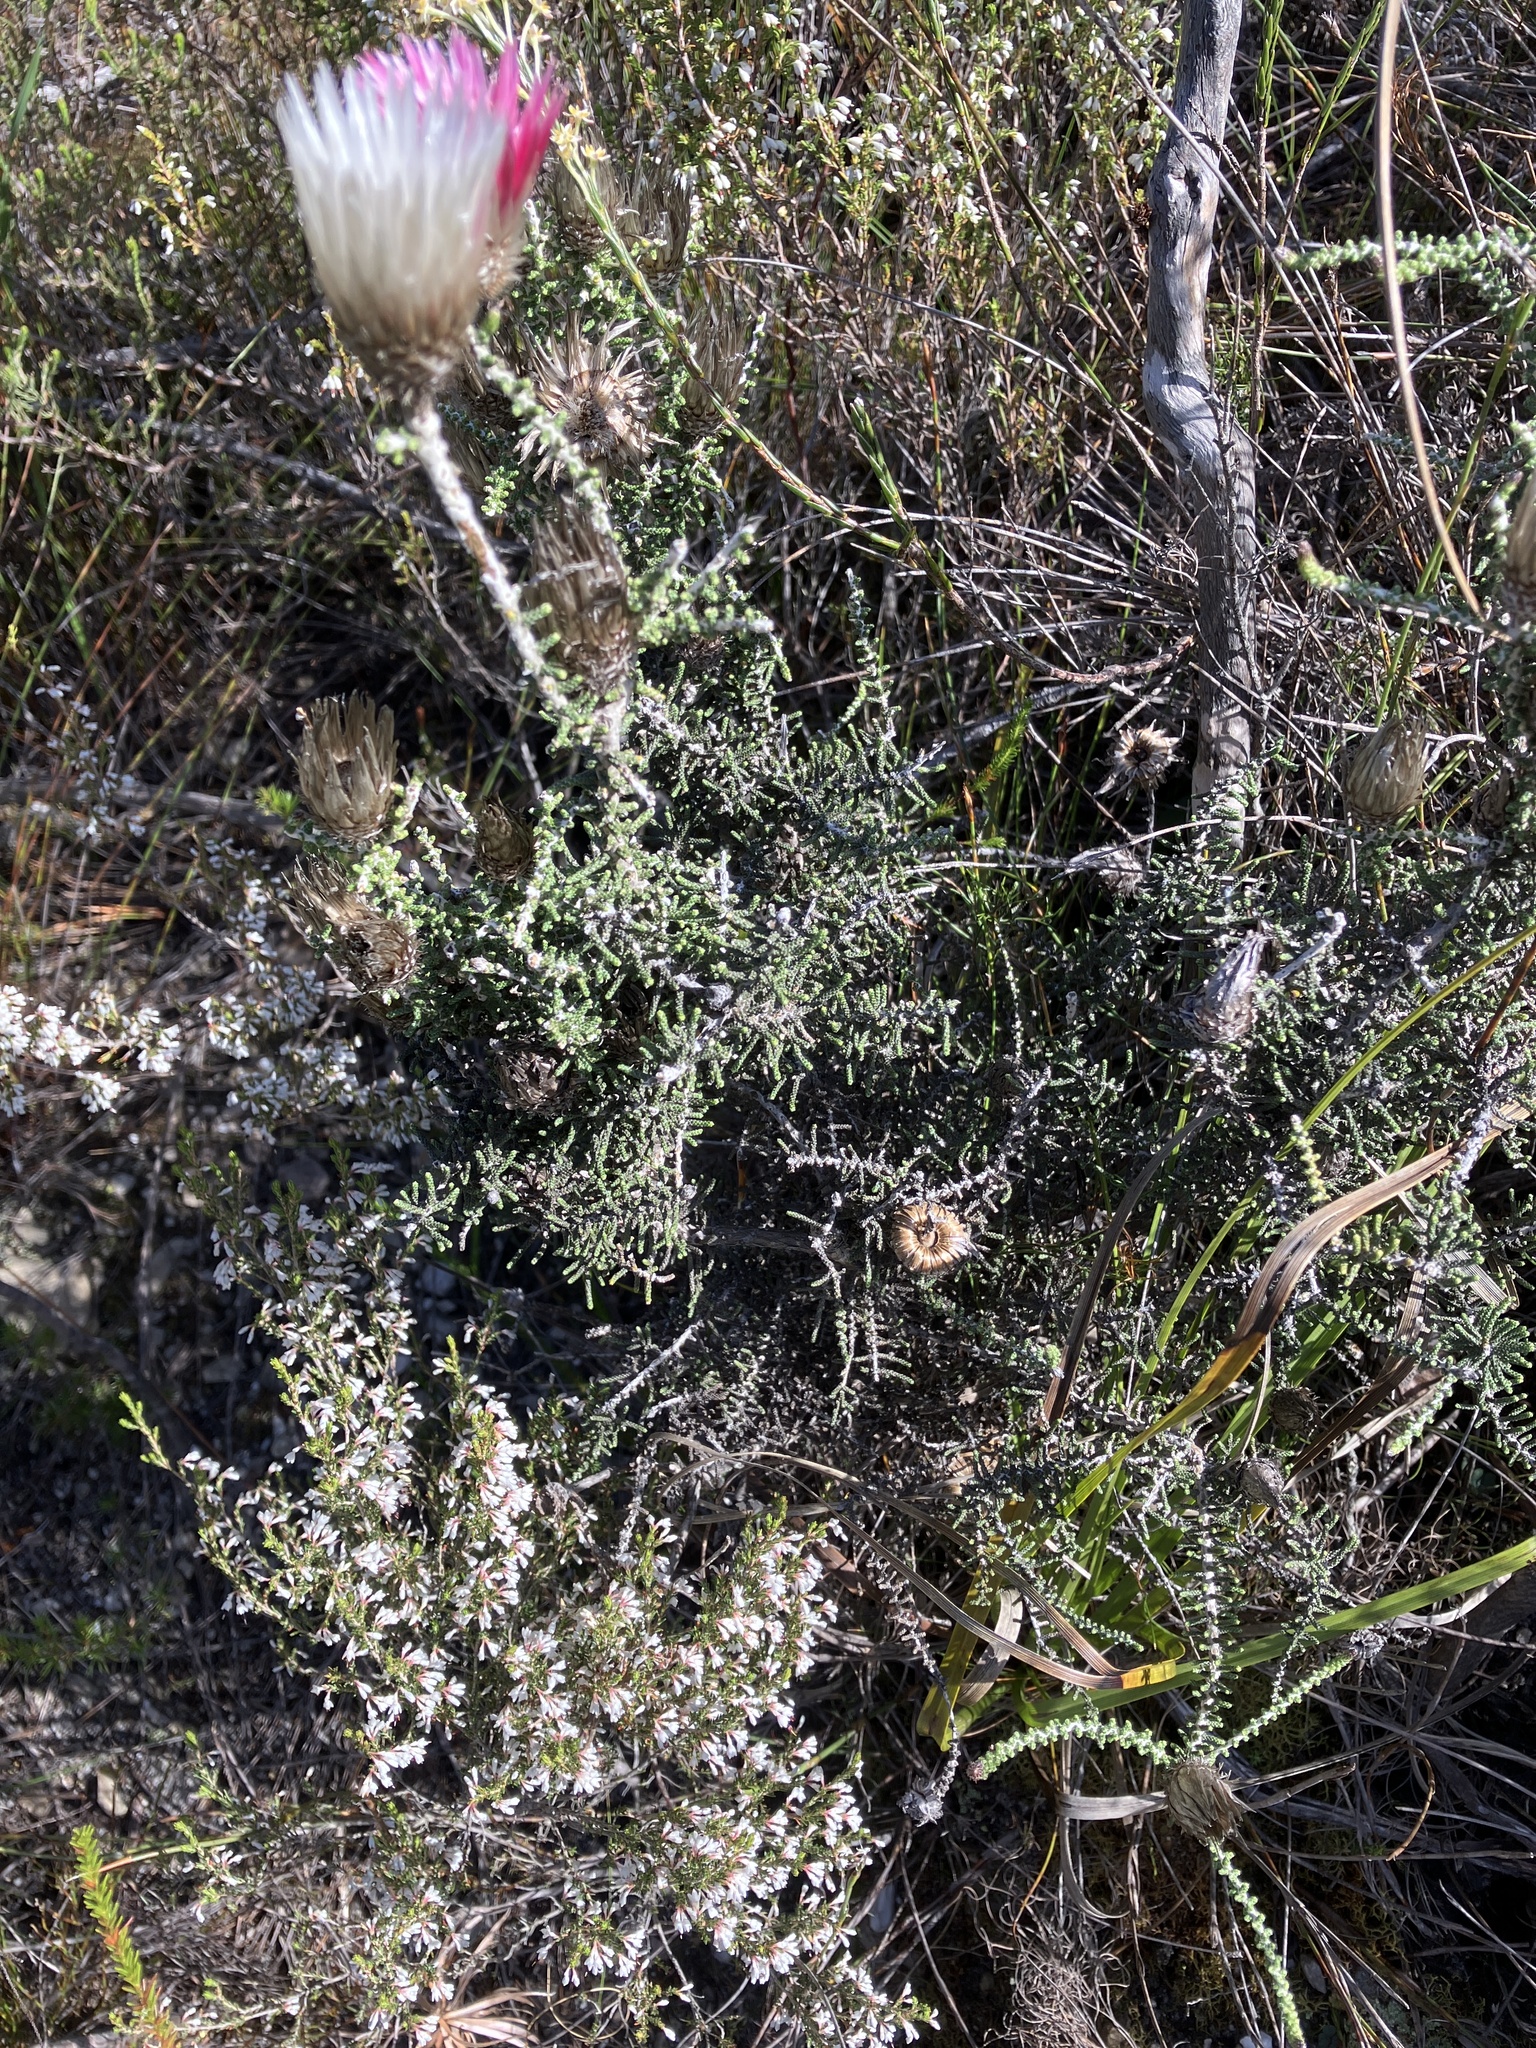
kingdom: Plantae
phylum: Tracheophyta
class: Magnoliopsida
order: Asterales
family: Asteraceae
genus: Phaenocoma
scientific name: Phaenocoma prolifera
